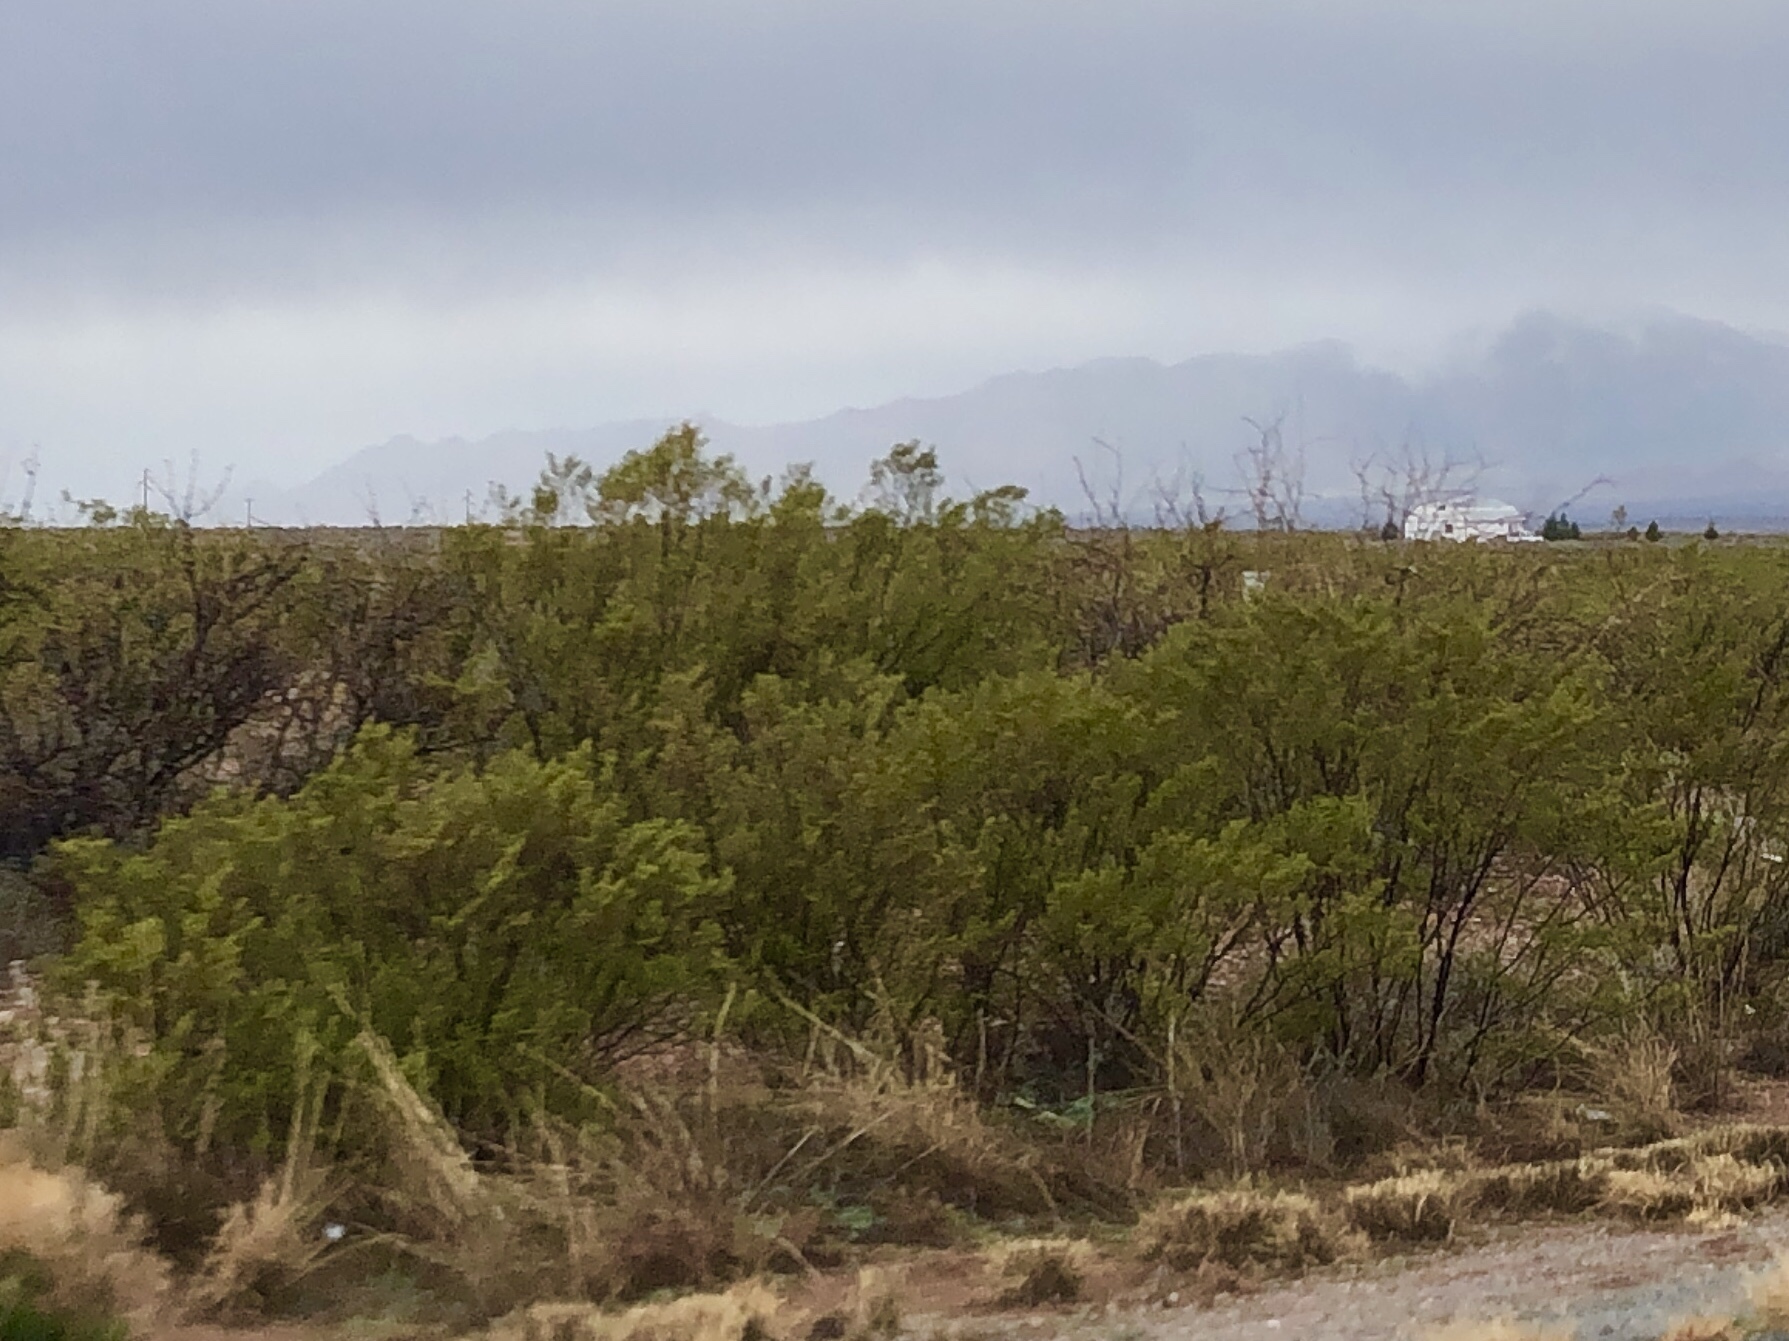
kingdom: Plantae
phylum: Tracheophyta
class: Magnoliopsida
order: Zygophyllales
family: Zygophyllaceae
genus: Larrea
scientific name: Larrea tridentata
